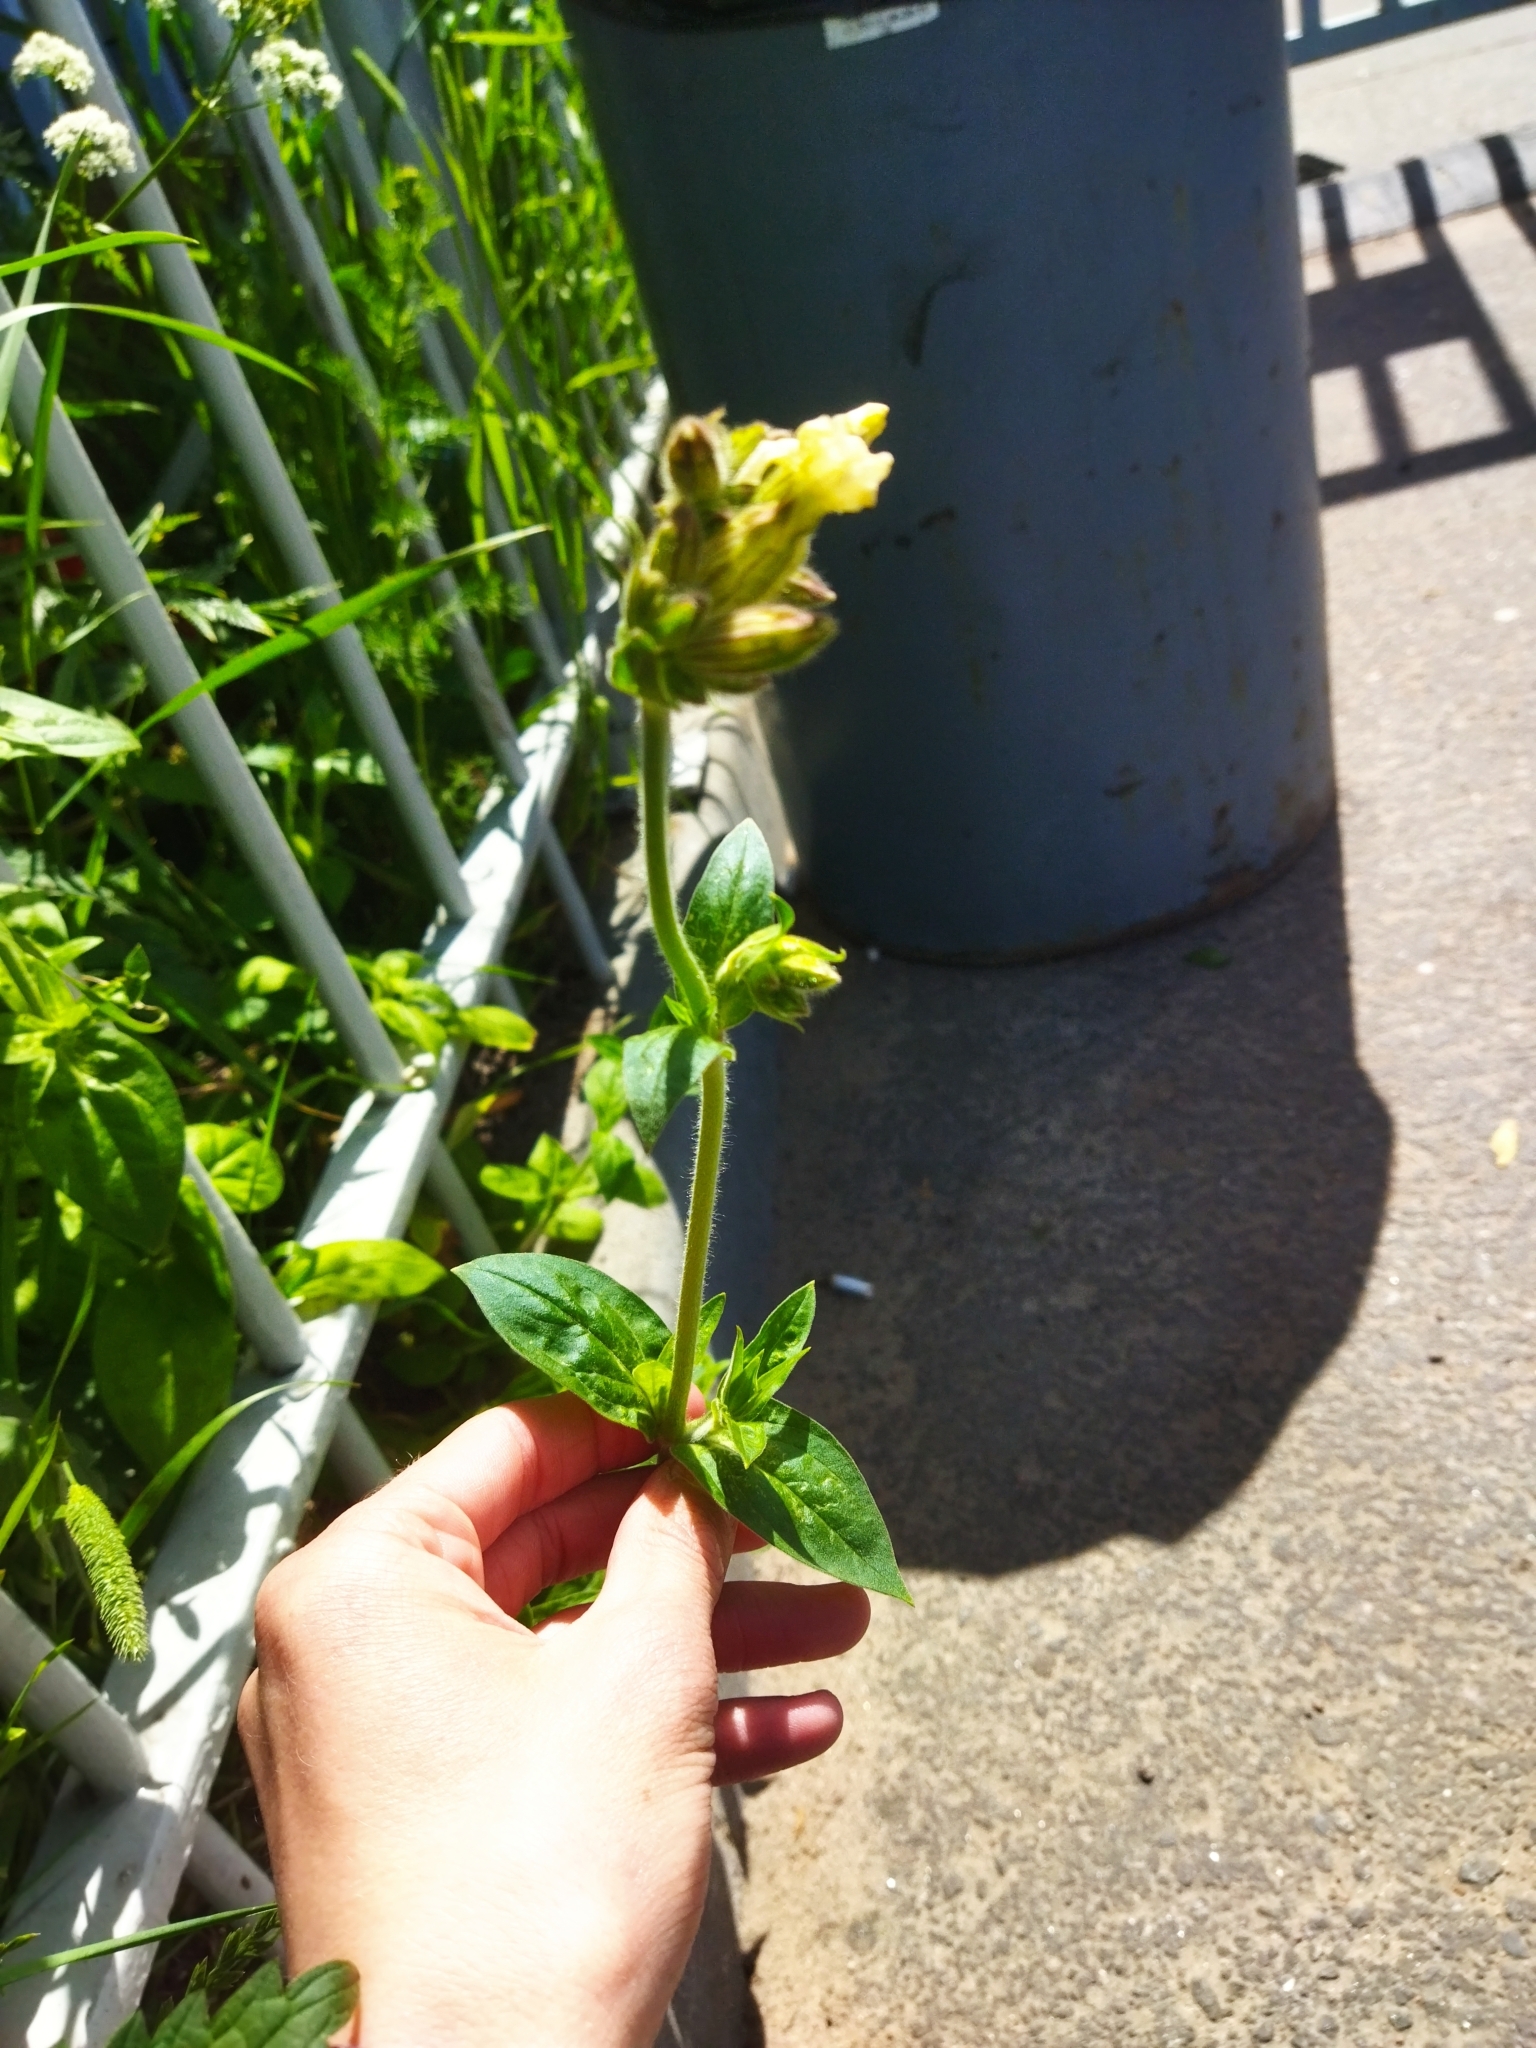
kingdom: Plantae
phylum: Tracheophyta
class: Magnoliopsida
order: Caryophyllales
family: Caryophyllaceae
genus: Silene
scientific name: Silene latifolia
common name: White campion
